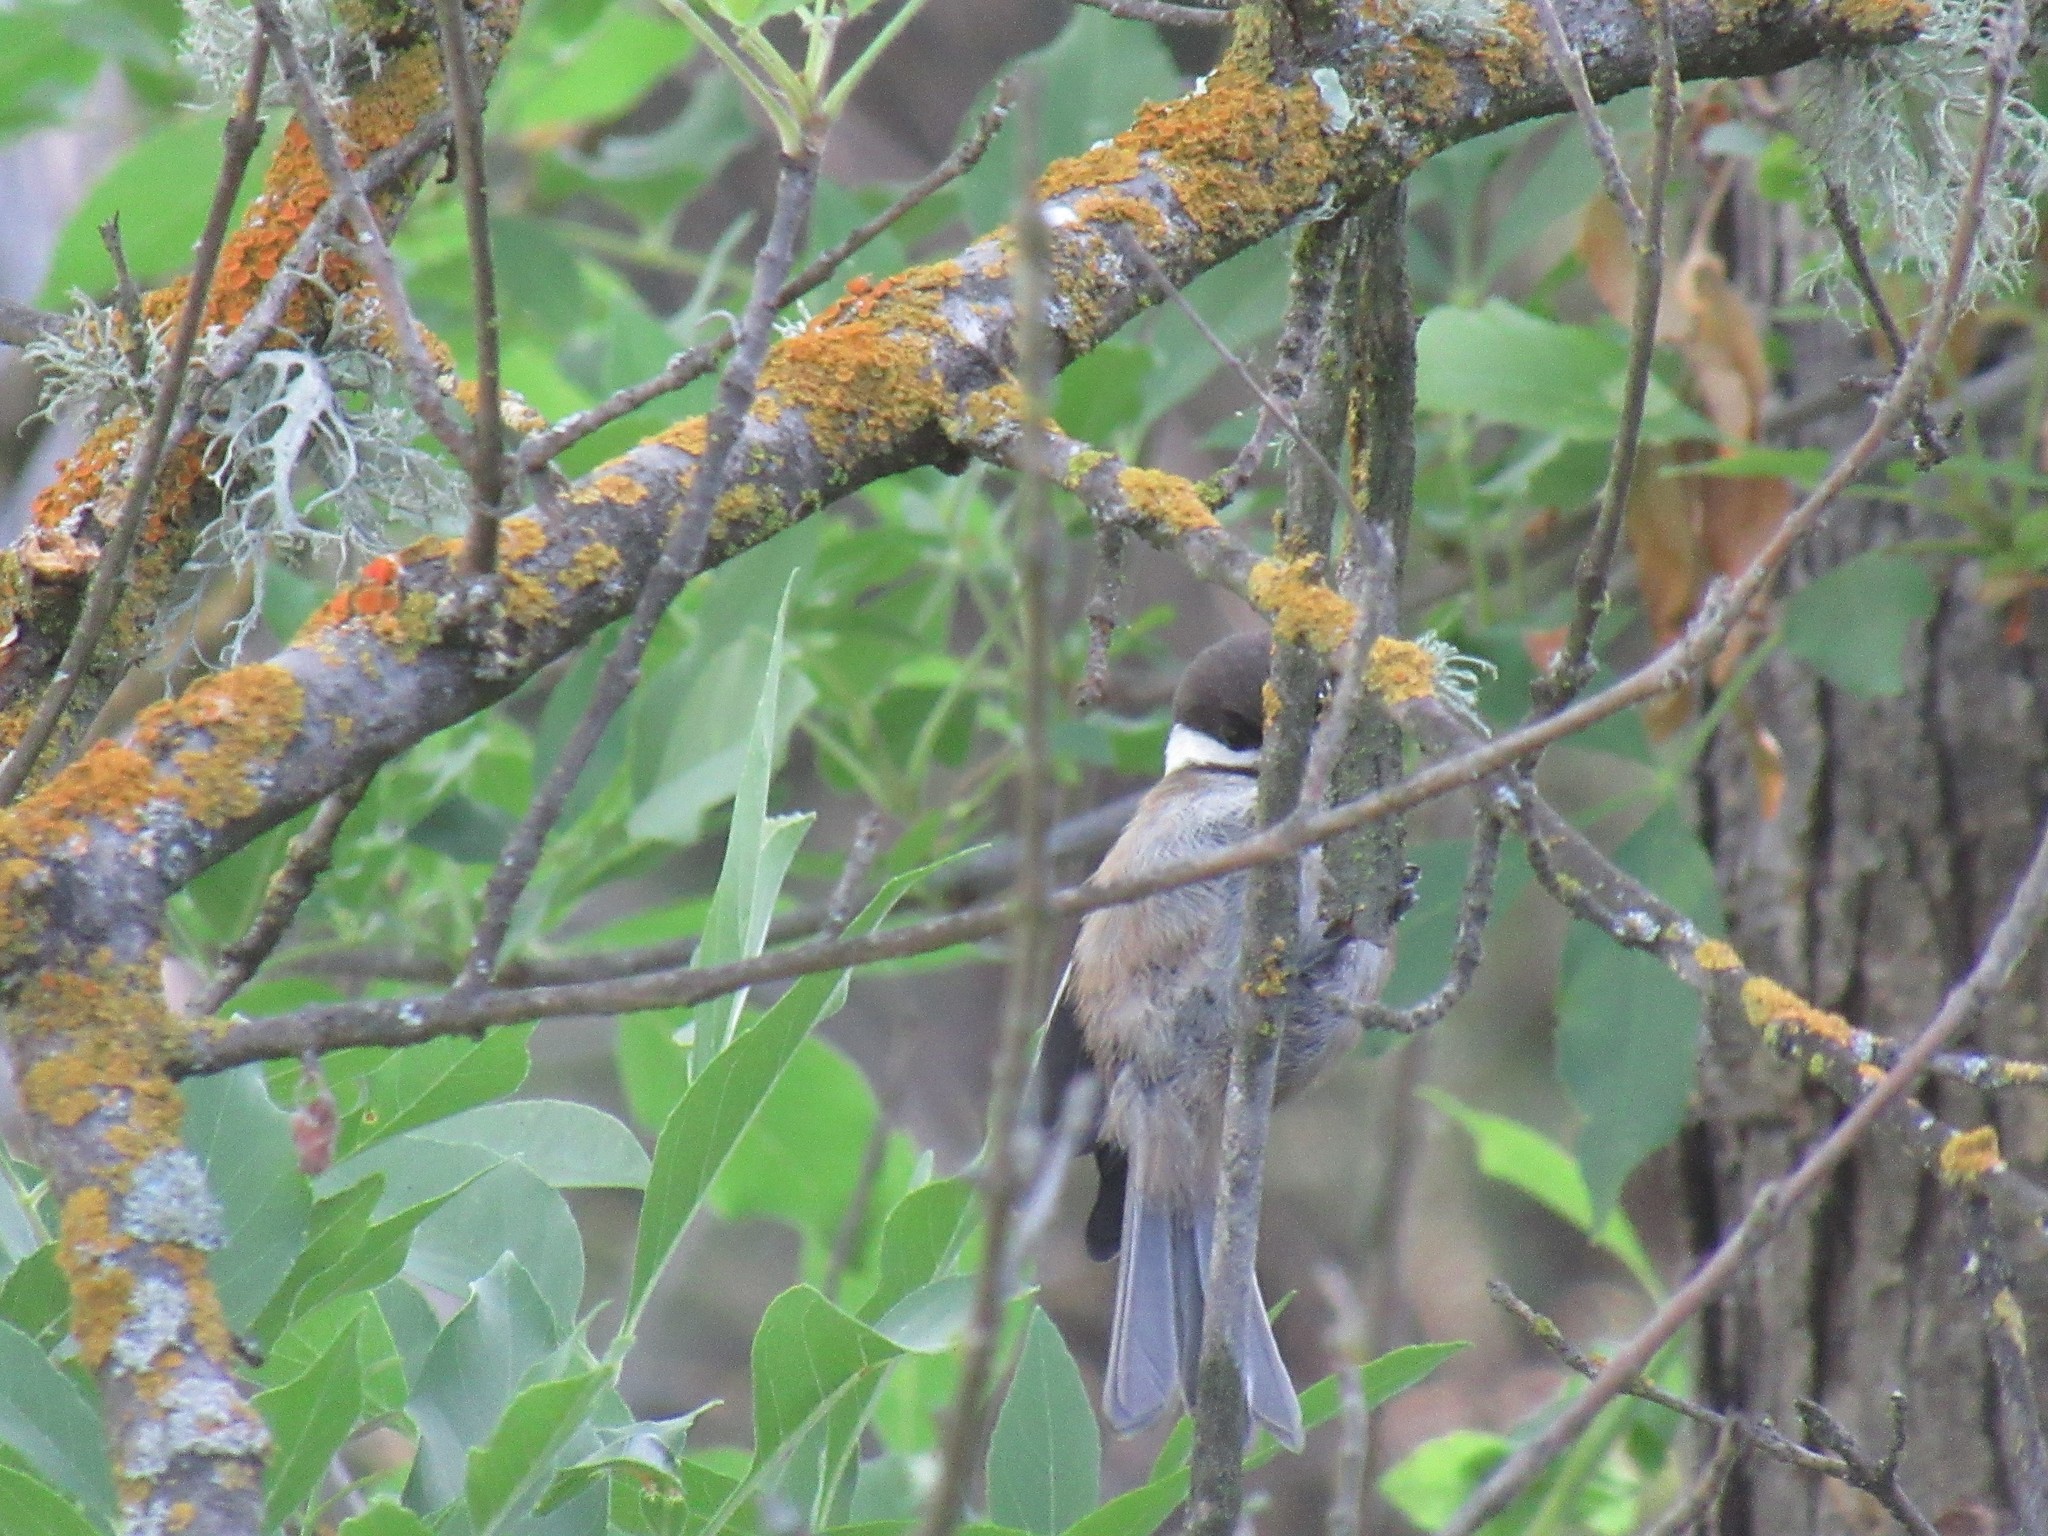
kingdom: Animalia
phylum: Chordata
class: Aves
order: Passeriformes
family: Paridae
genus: Poecile
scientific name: Poecile rufescens
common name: Chestnut-backed chickadee
